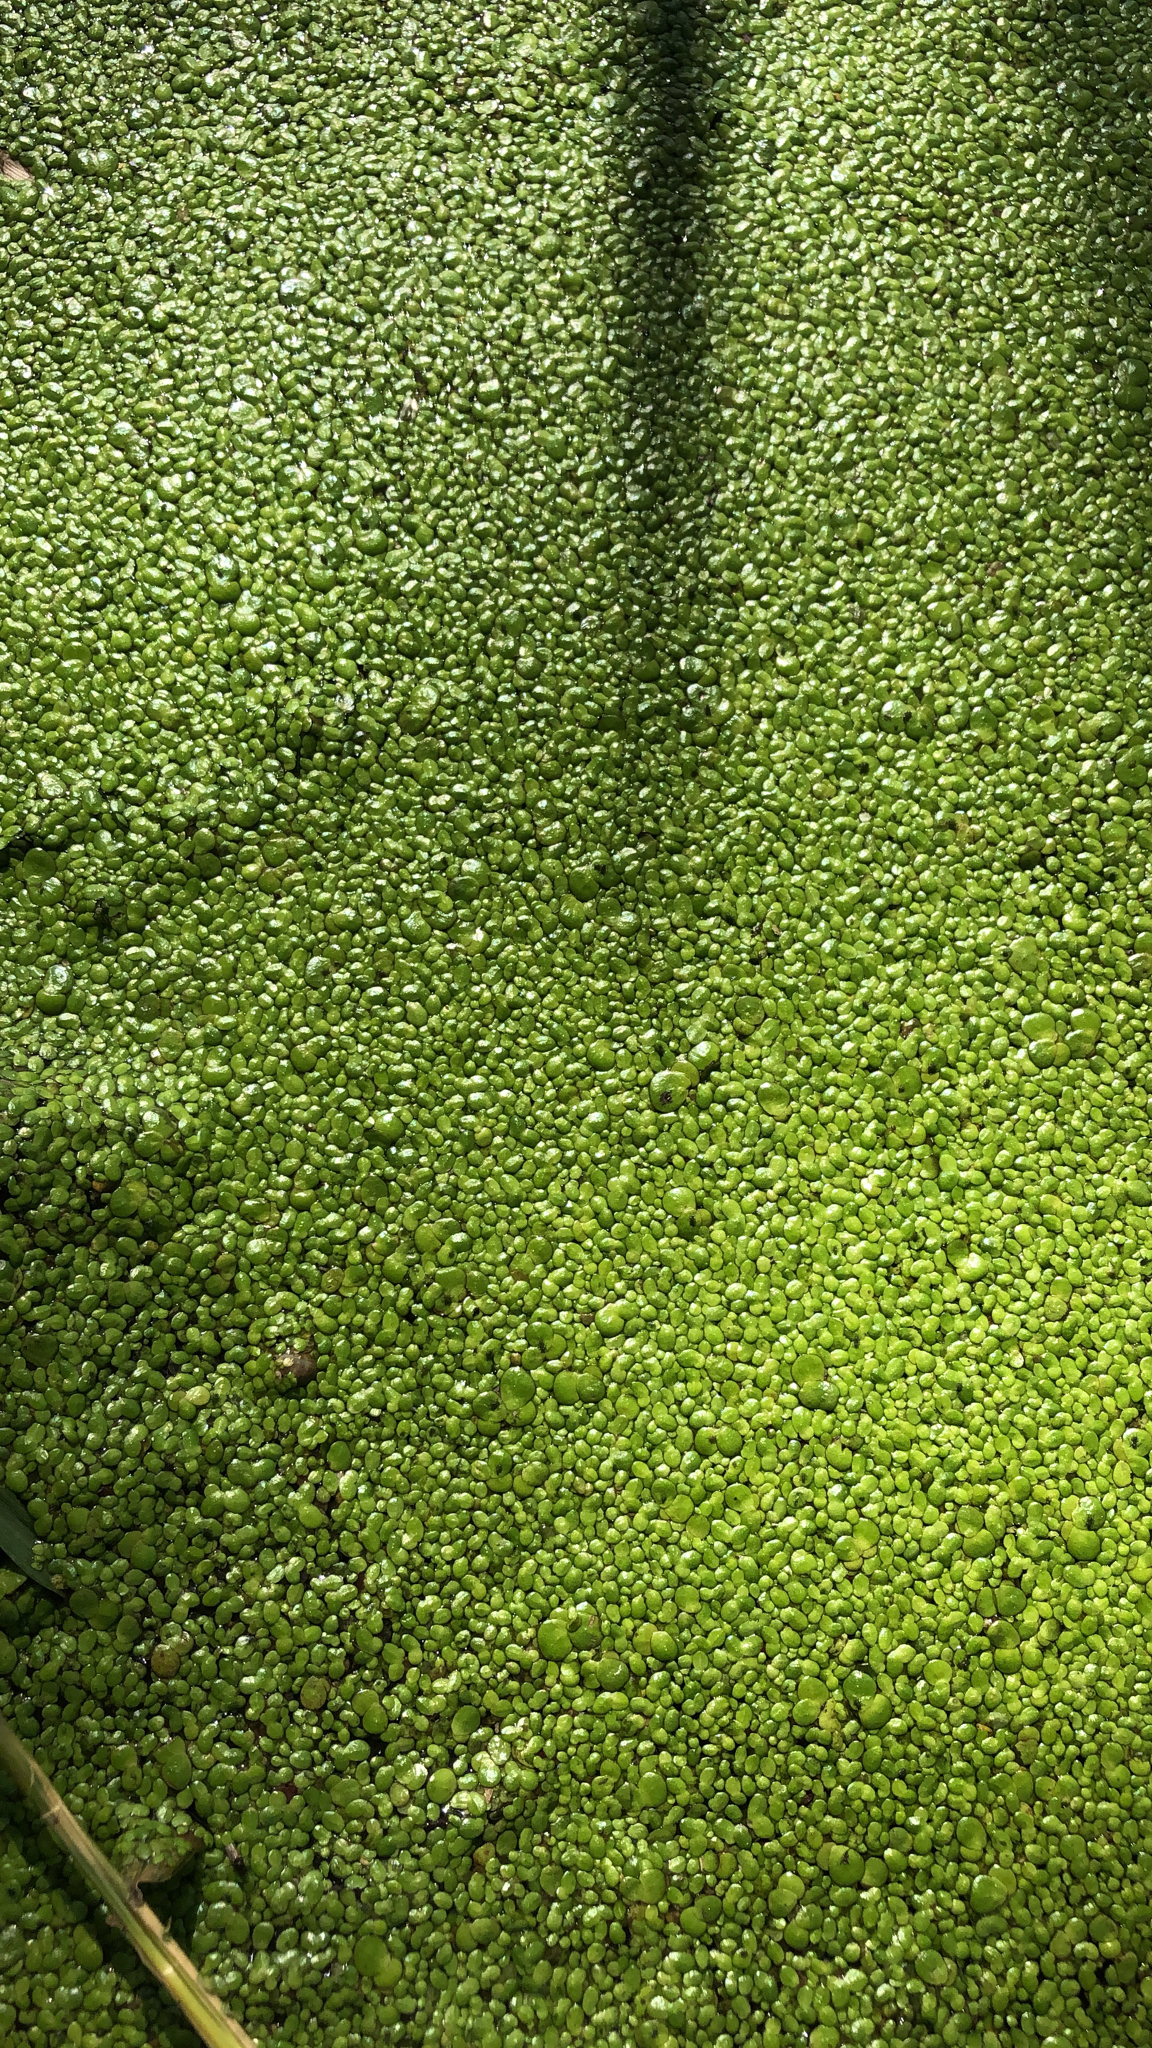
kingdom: Plantae
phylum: Tracheophyta
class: Liliopsida
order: Alismatales
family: Araceae
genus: Lemna
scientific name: Lemna minor
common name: Common duckweed
